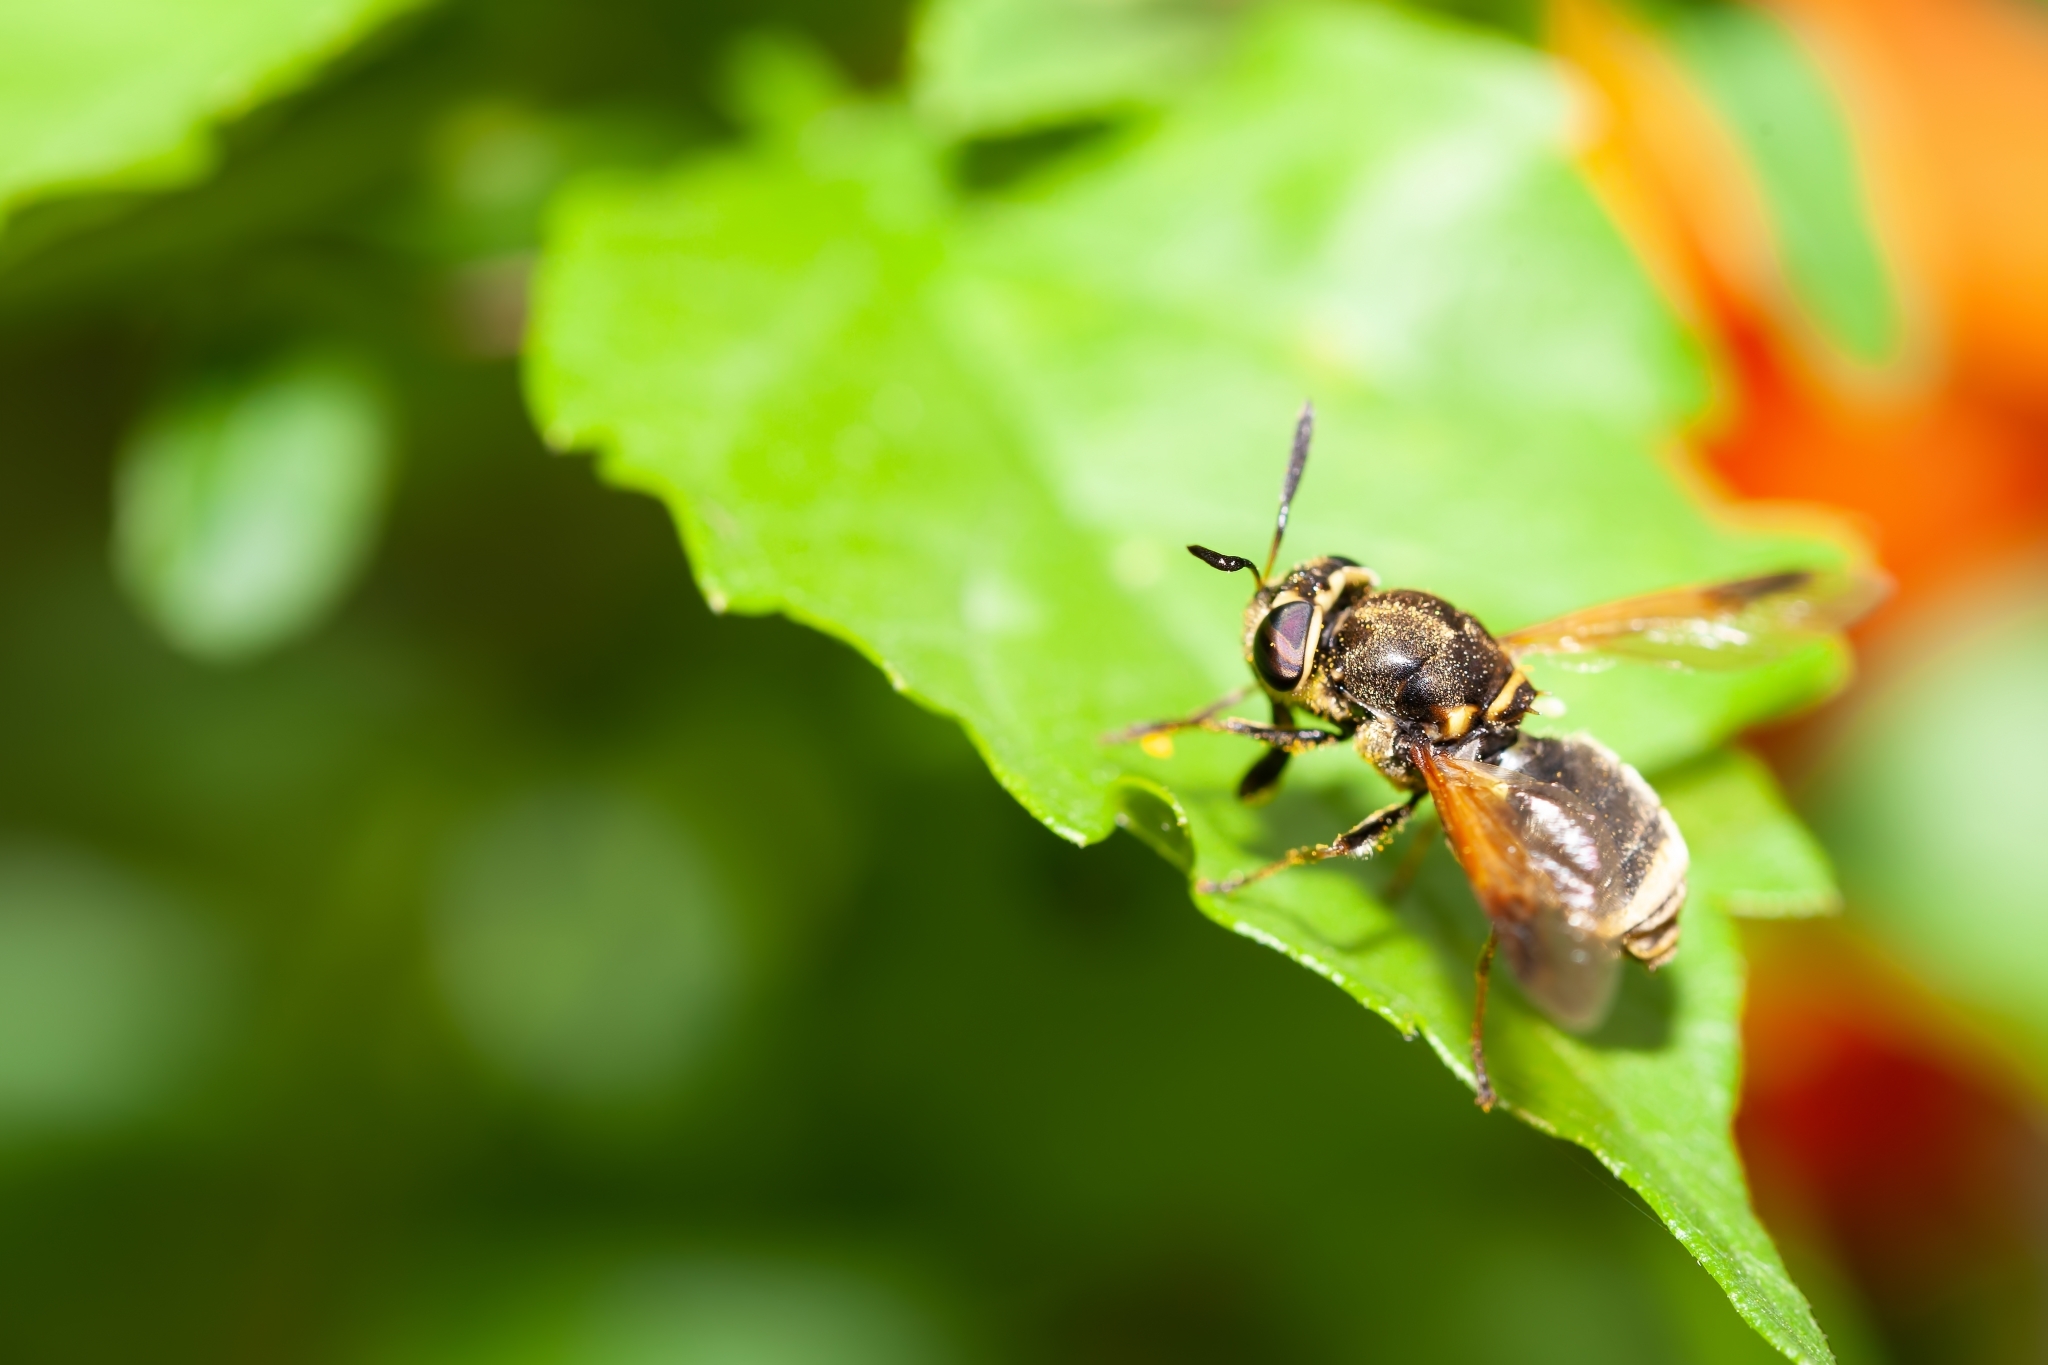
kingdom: Animalia
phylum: Arthropoda
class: Insecta
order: Diptera
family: Stratiomyidae
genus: Hoplitimyia
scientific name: Hoplitimyia mutabilis
